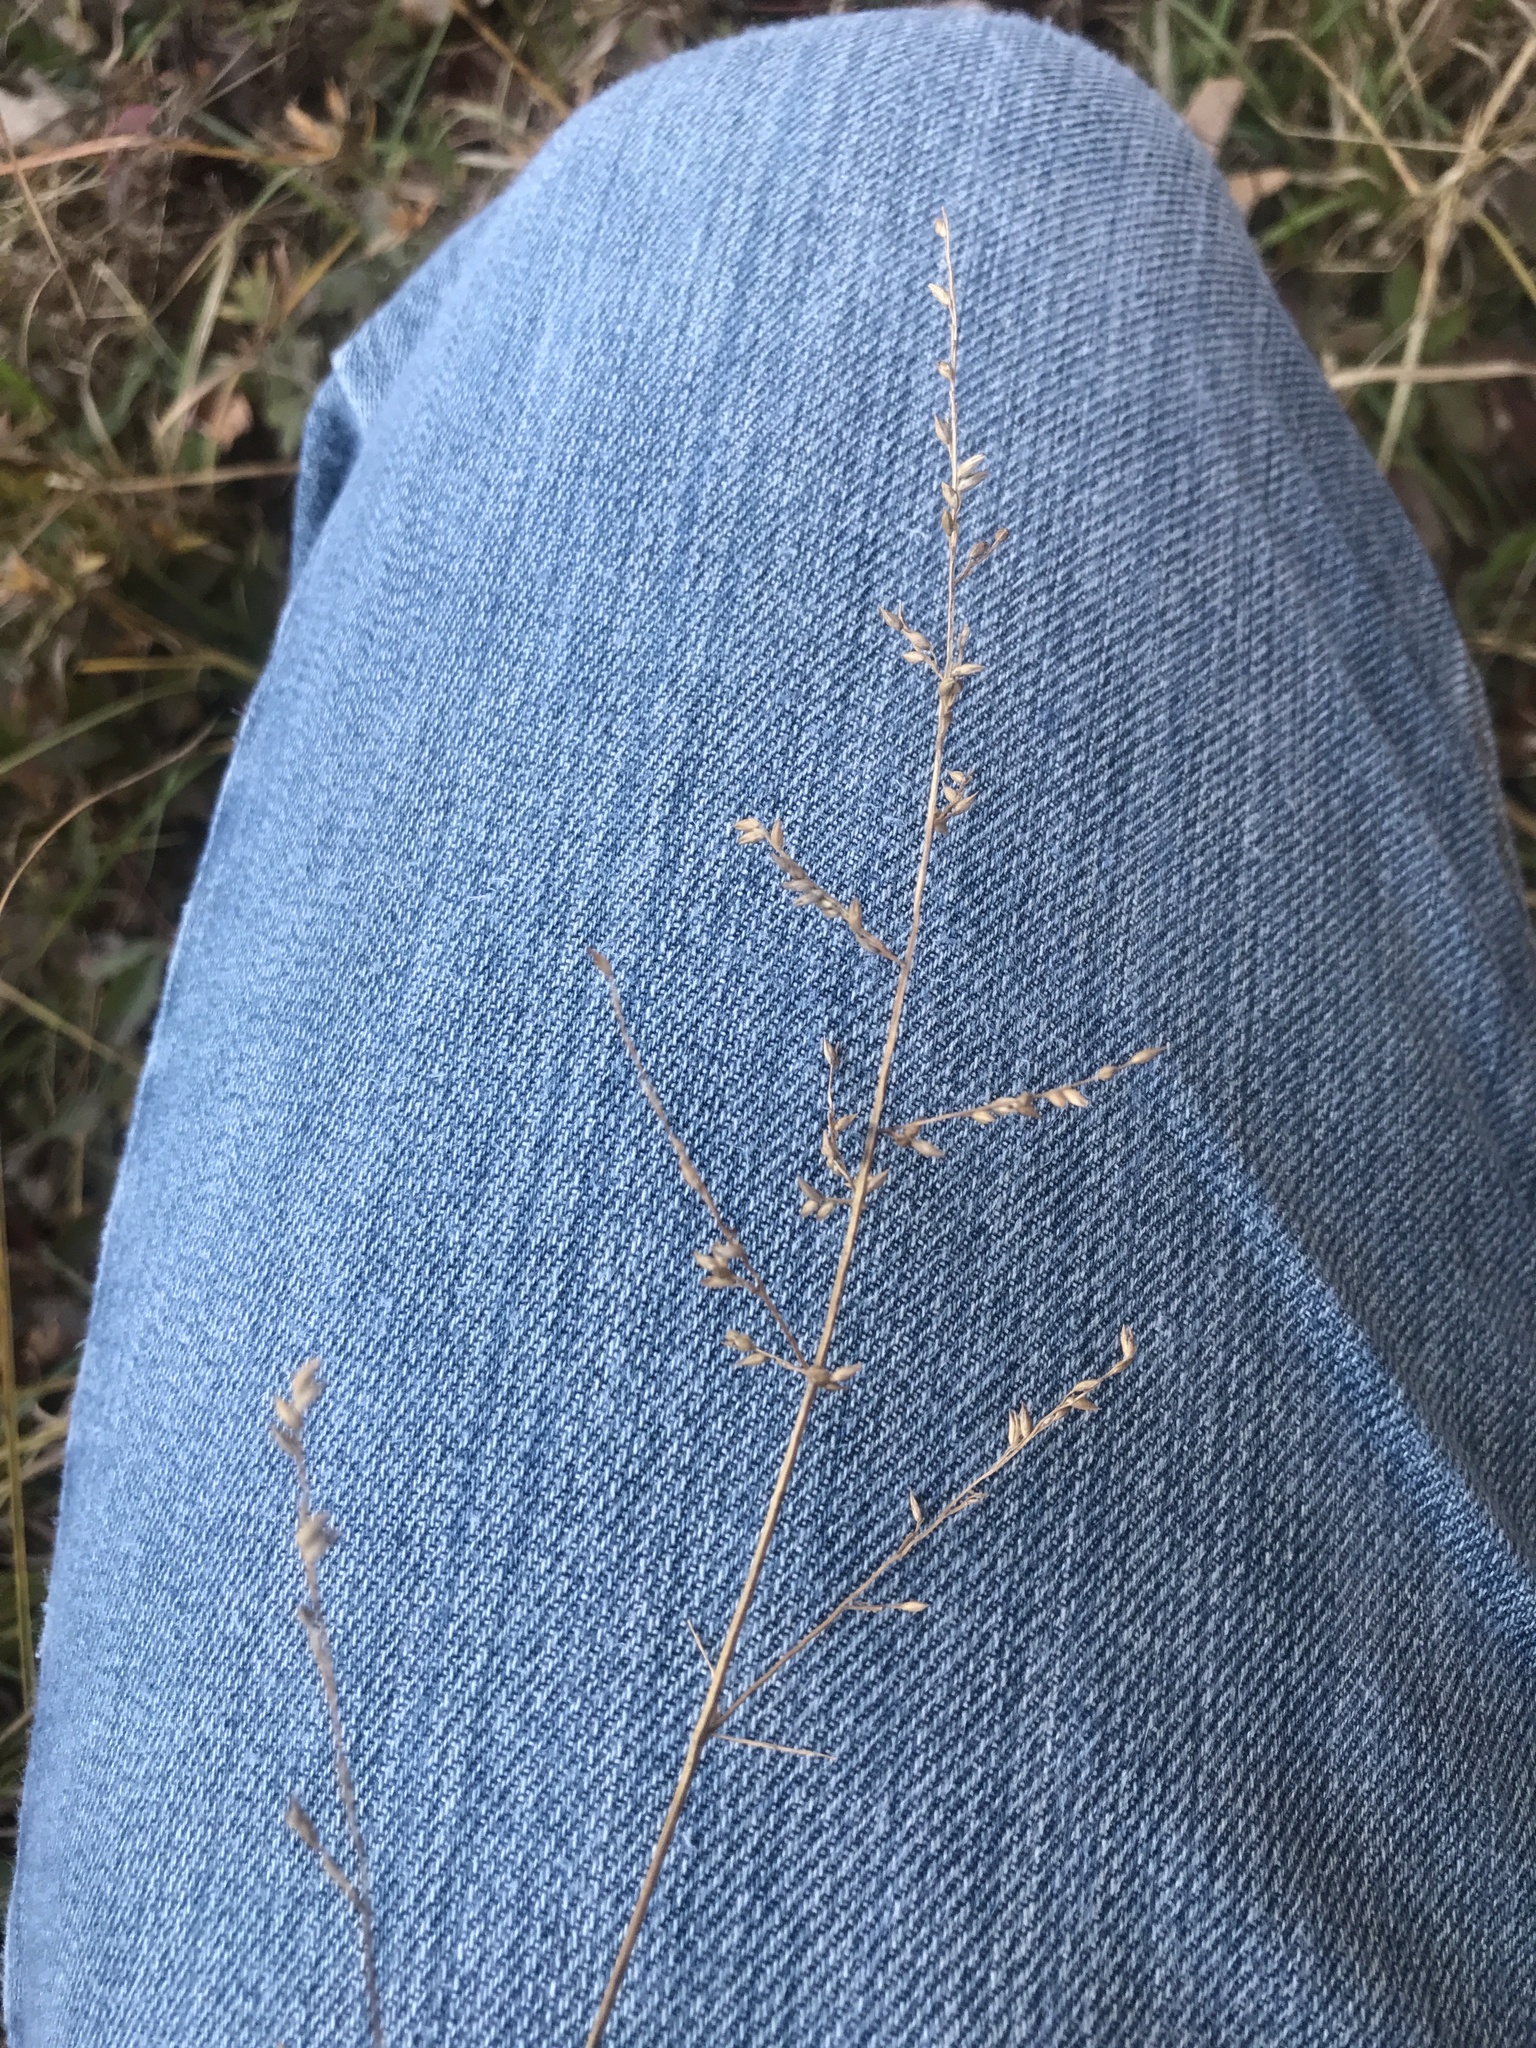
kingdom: Plantae
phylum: Tracheophyta
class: Liliopsida
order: Poales
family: Poaceae
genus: Coleataenia
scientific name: Coleataenia anceps
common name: Beaked panic grass
